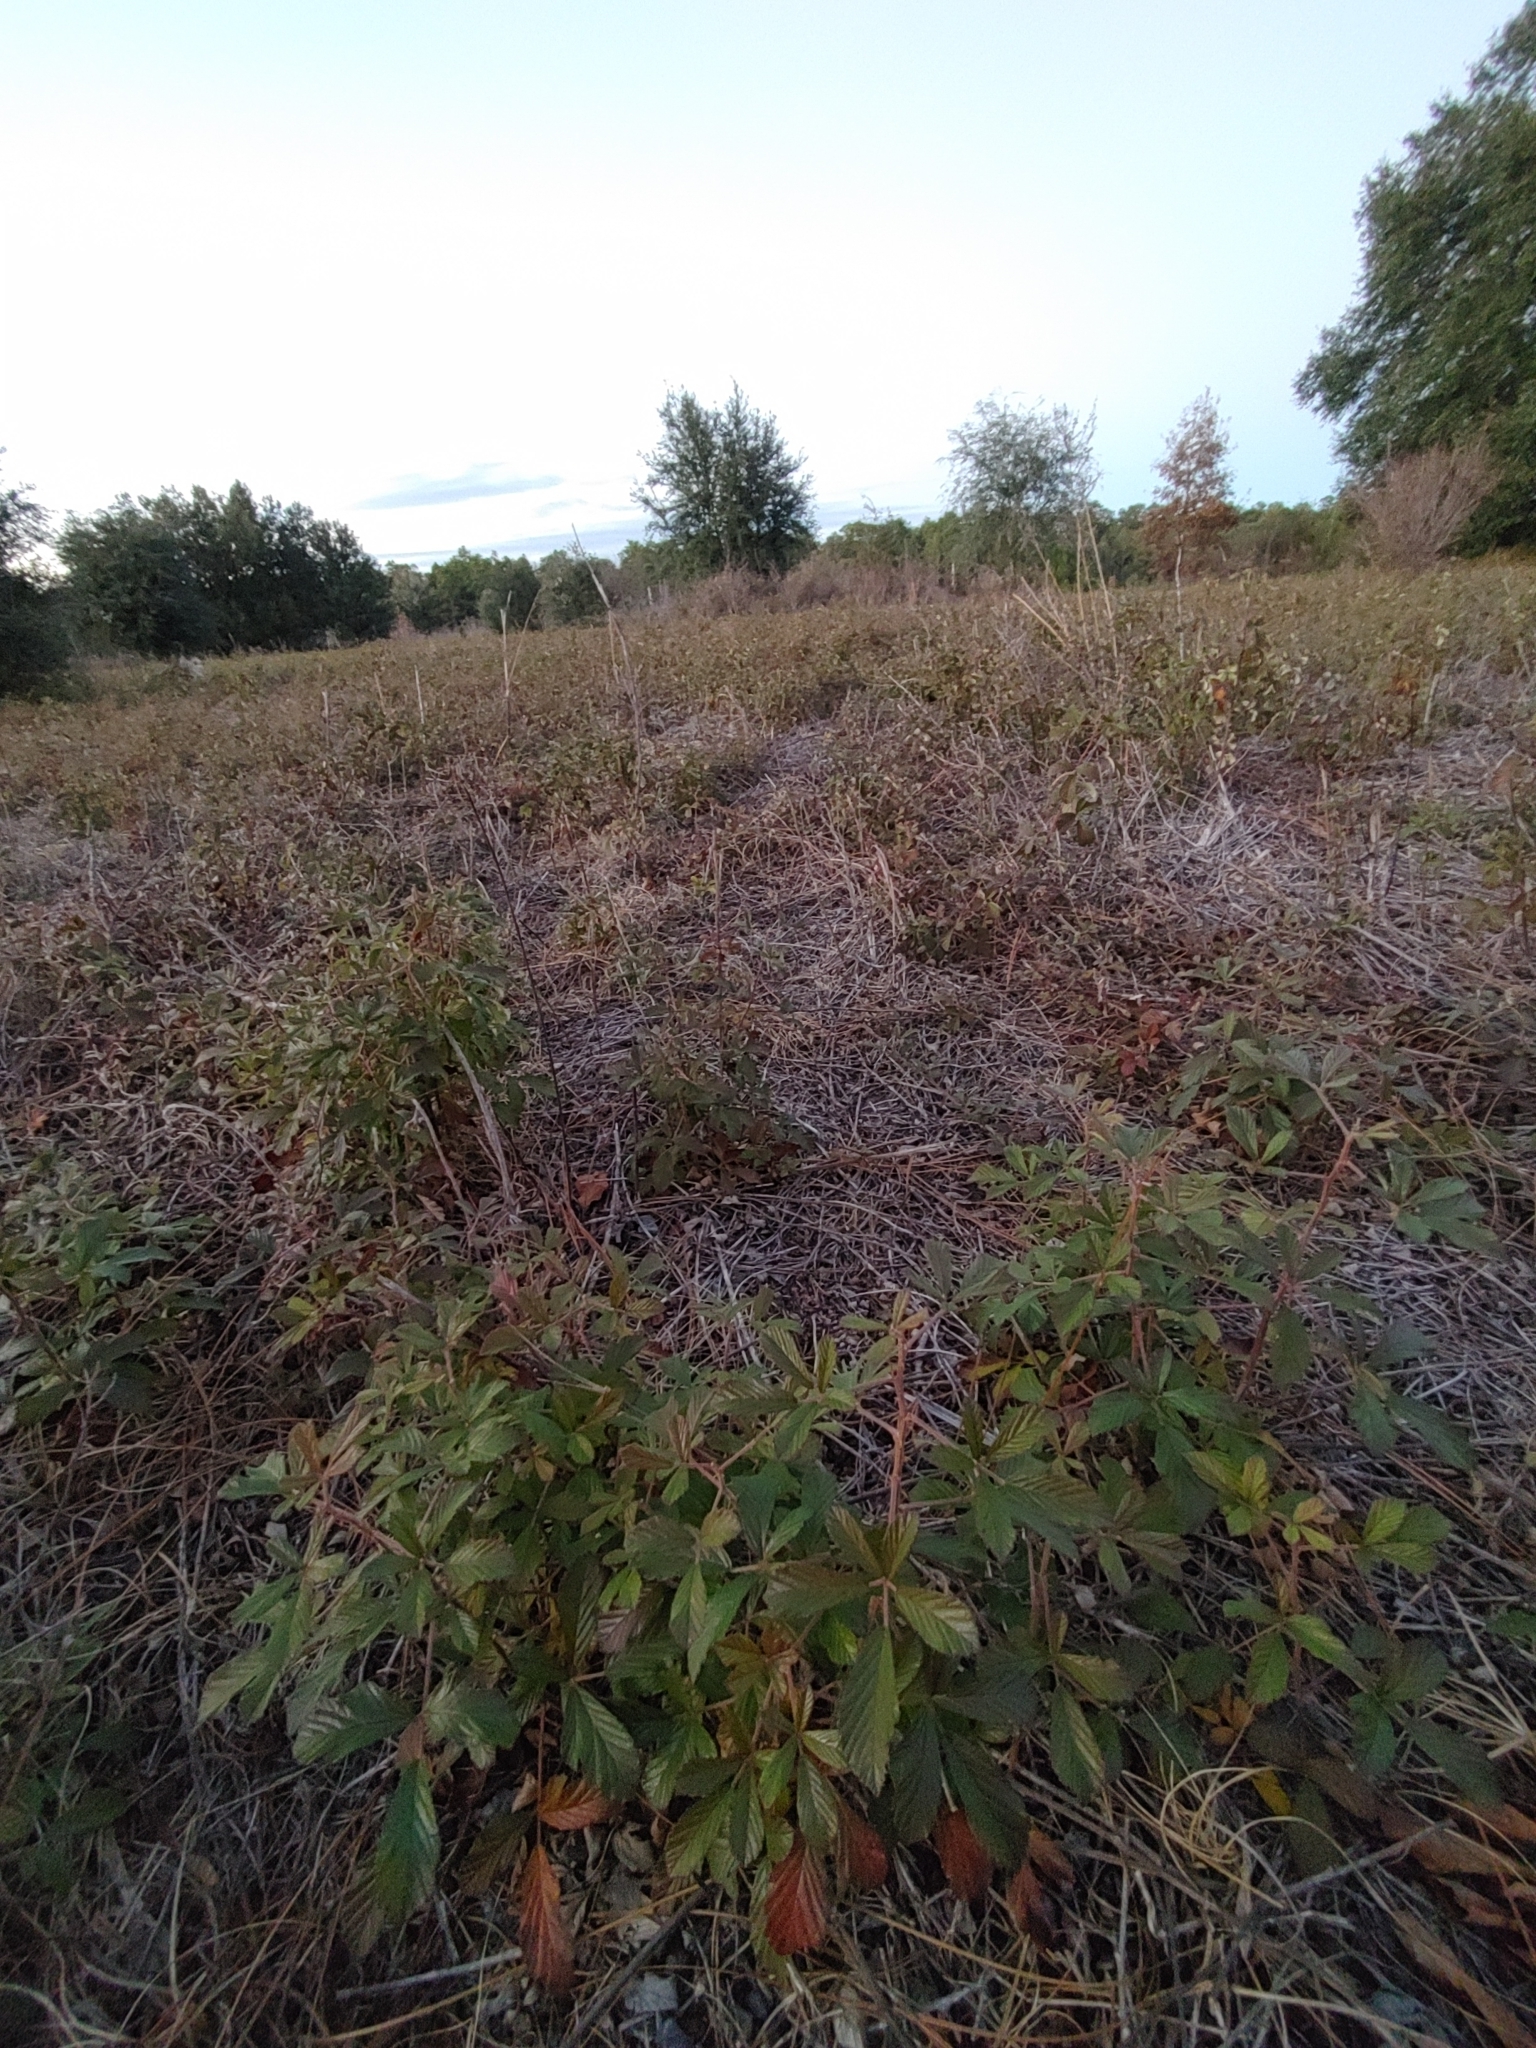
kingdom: Plantae
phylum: Tracheophyta
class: Magnoliopsida
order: Rosales
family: Rosaceae
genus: Rubus
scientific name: Rubus cuneifolius
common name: American bramble
